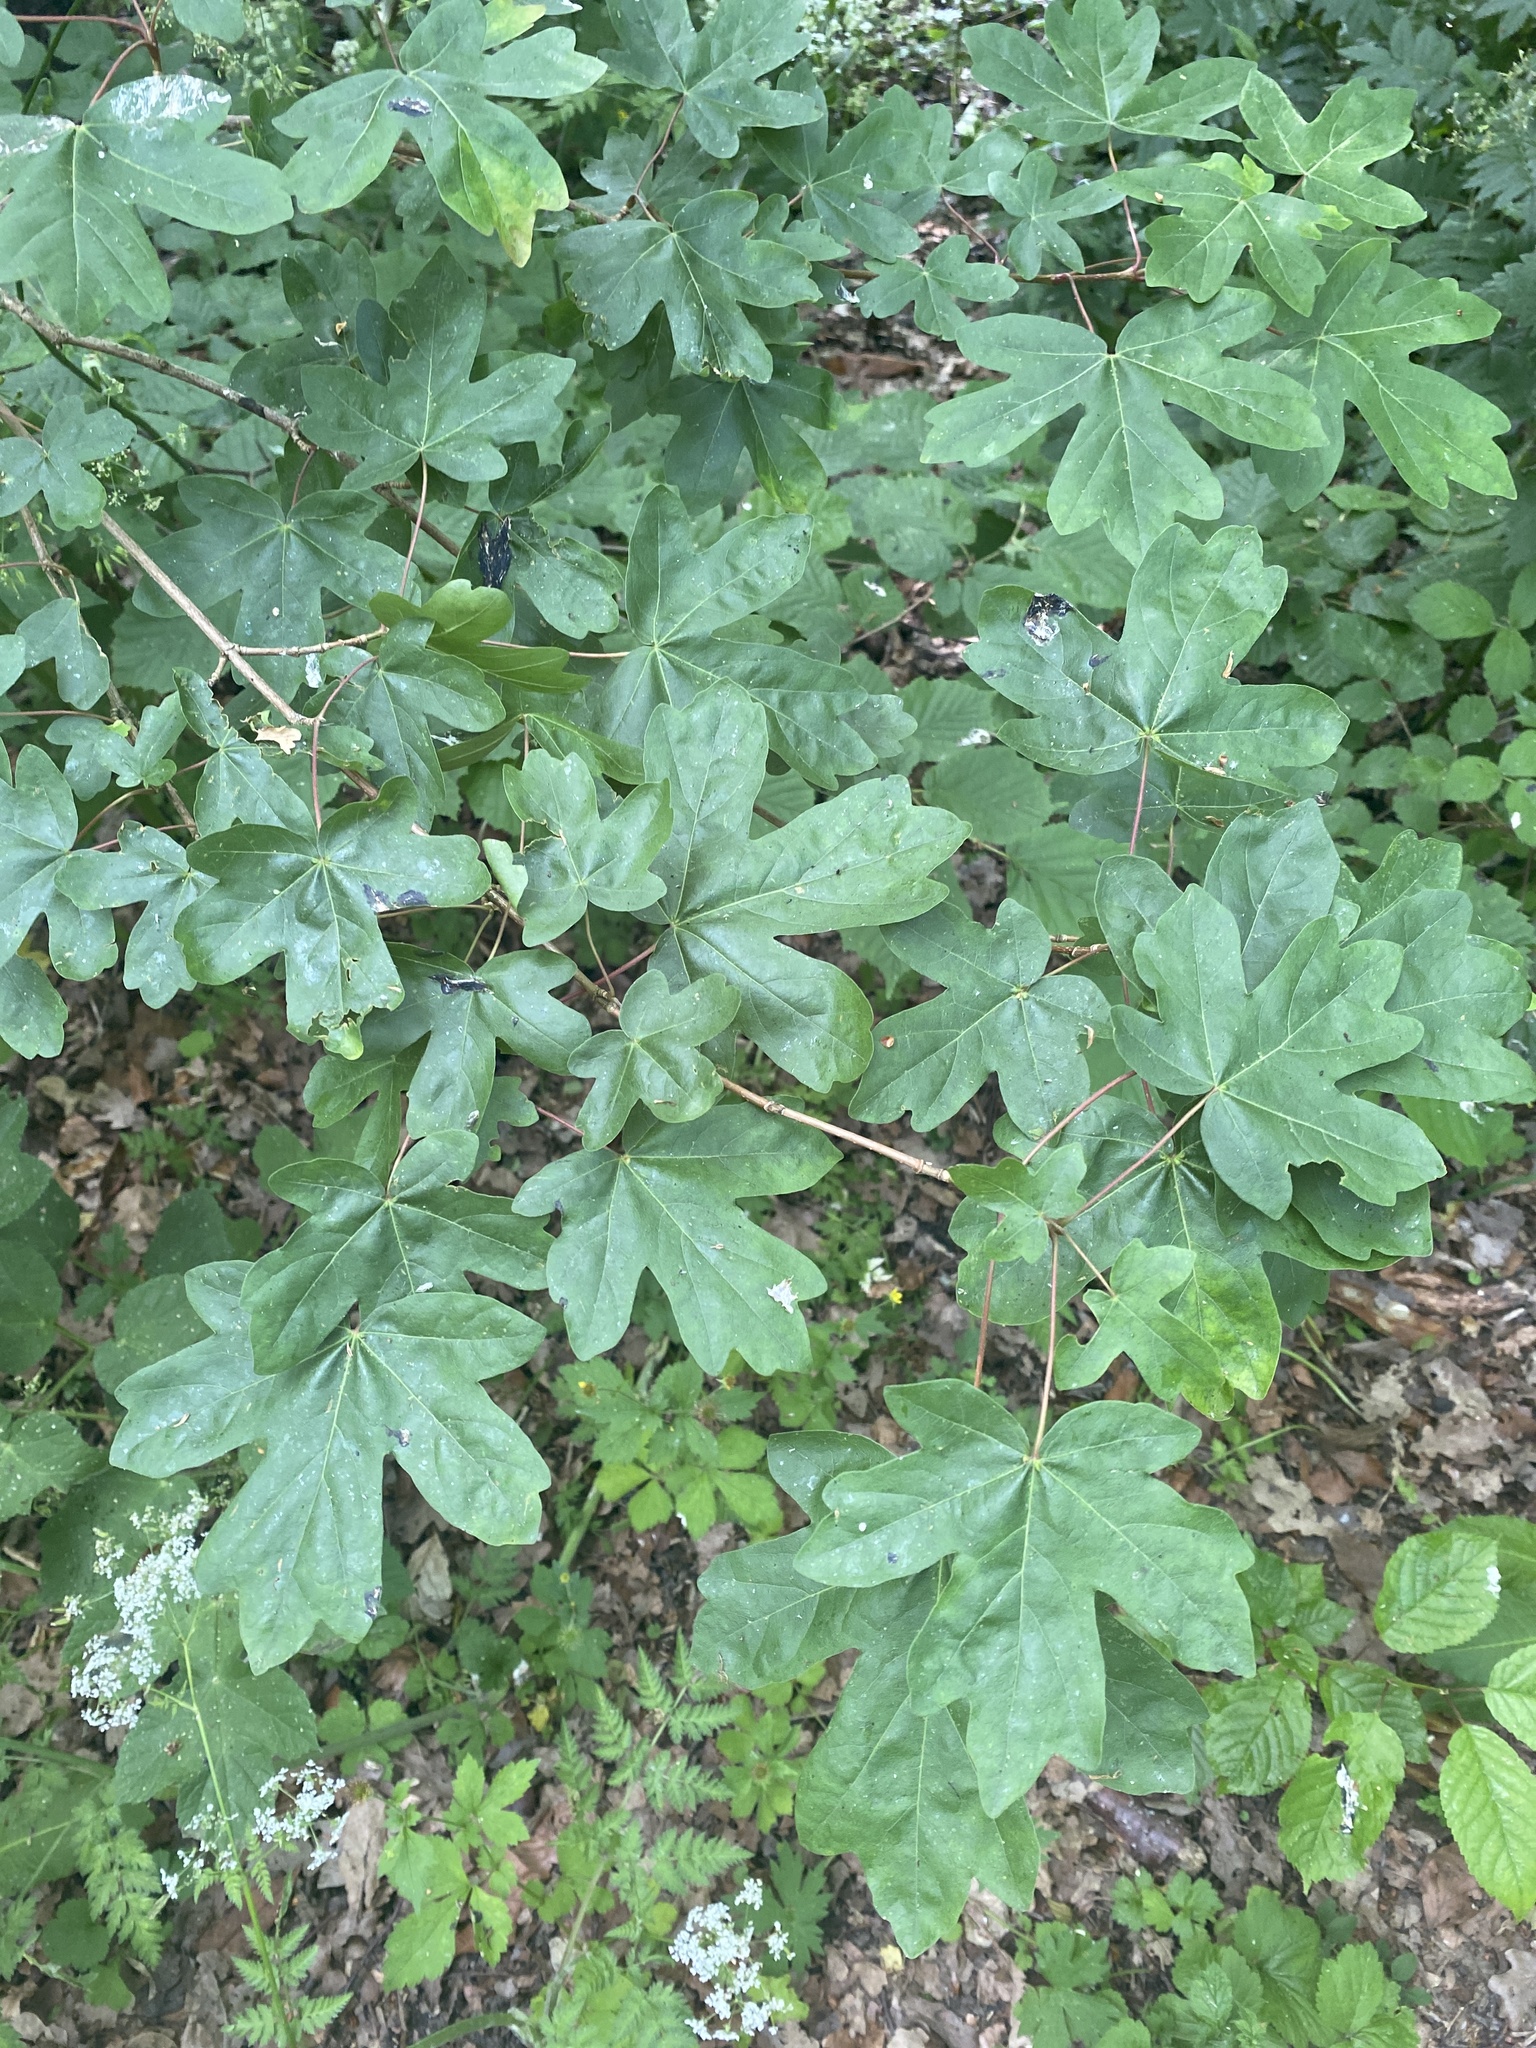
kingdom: Plantae
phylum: Tracheophyta
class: Magnoliopsida
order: Sapindales
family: Sapindaceae
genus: Acer
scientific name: Acer campestre
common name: Field maple
